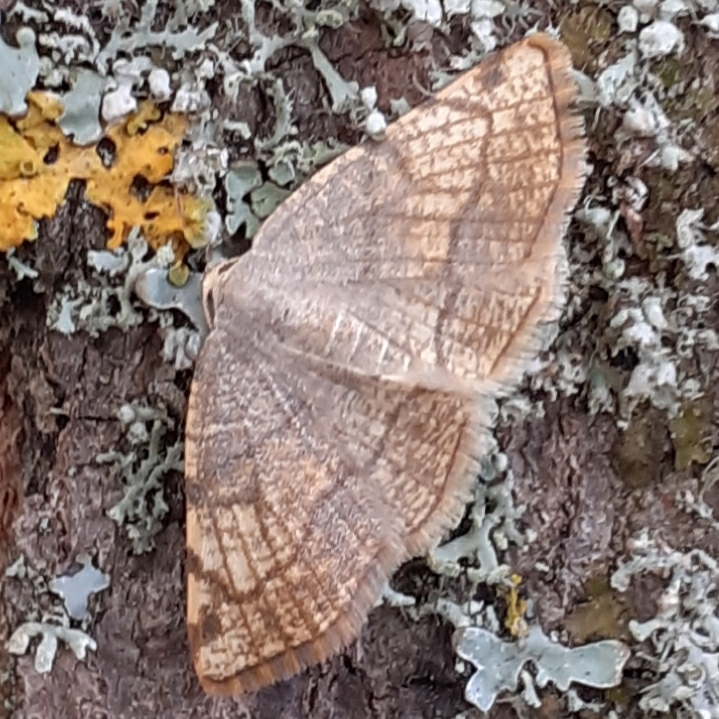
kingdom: Animalia
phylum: Arthropoda
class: Insecta
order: Lepidoptera
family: Geometridae
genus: Stegania
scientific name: Stegania trimaculata
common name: Dorset cream wave
